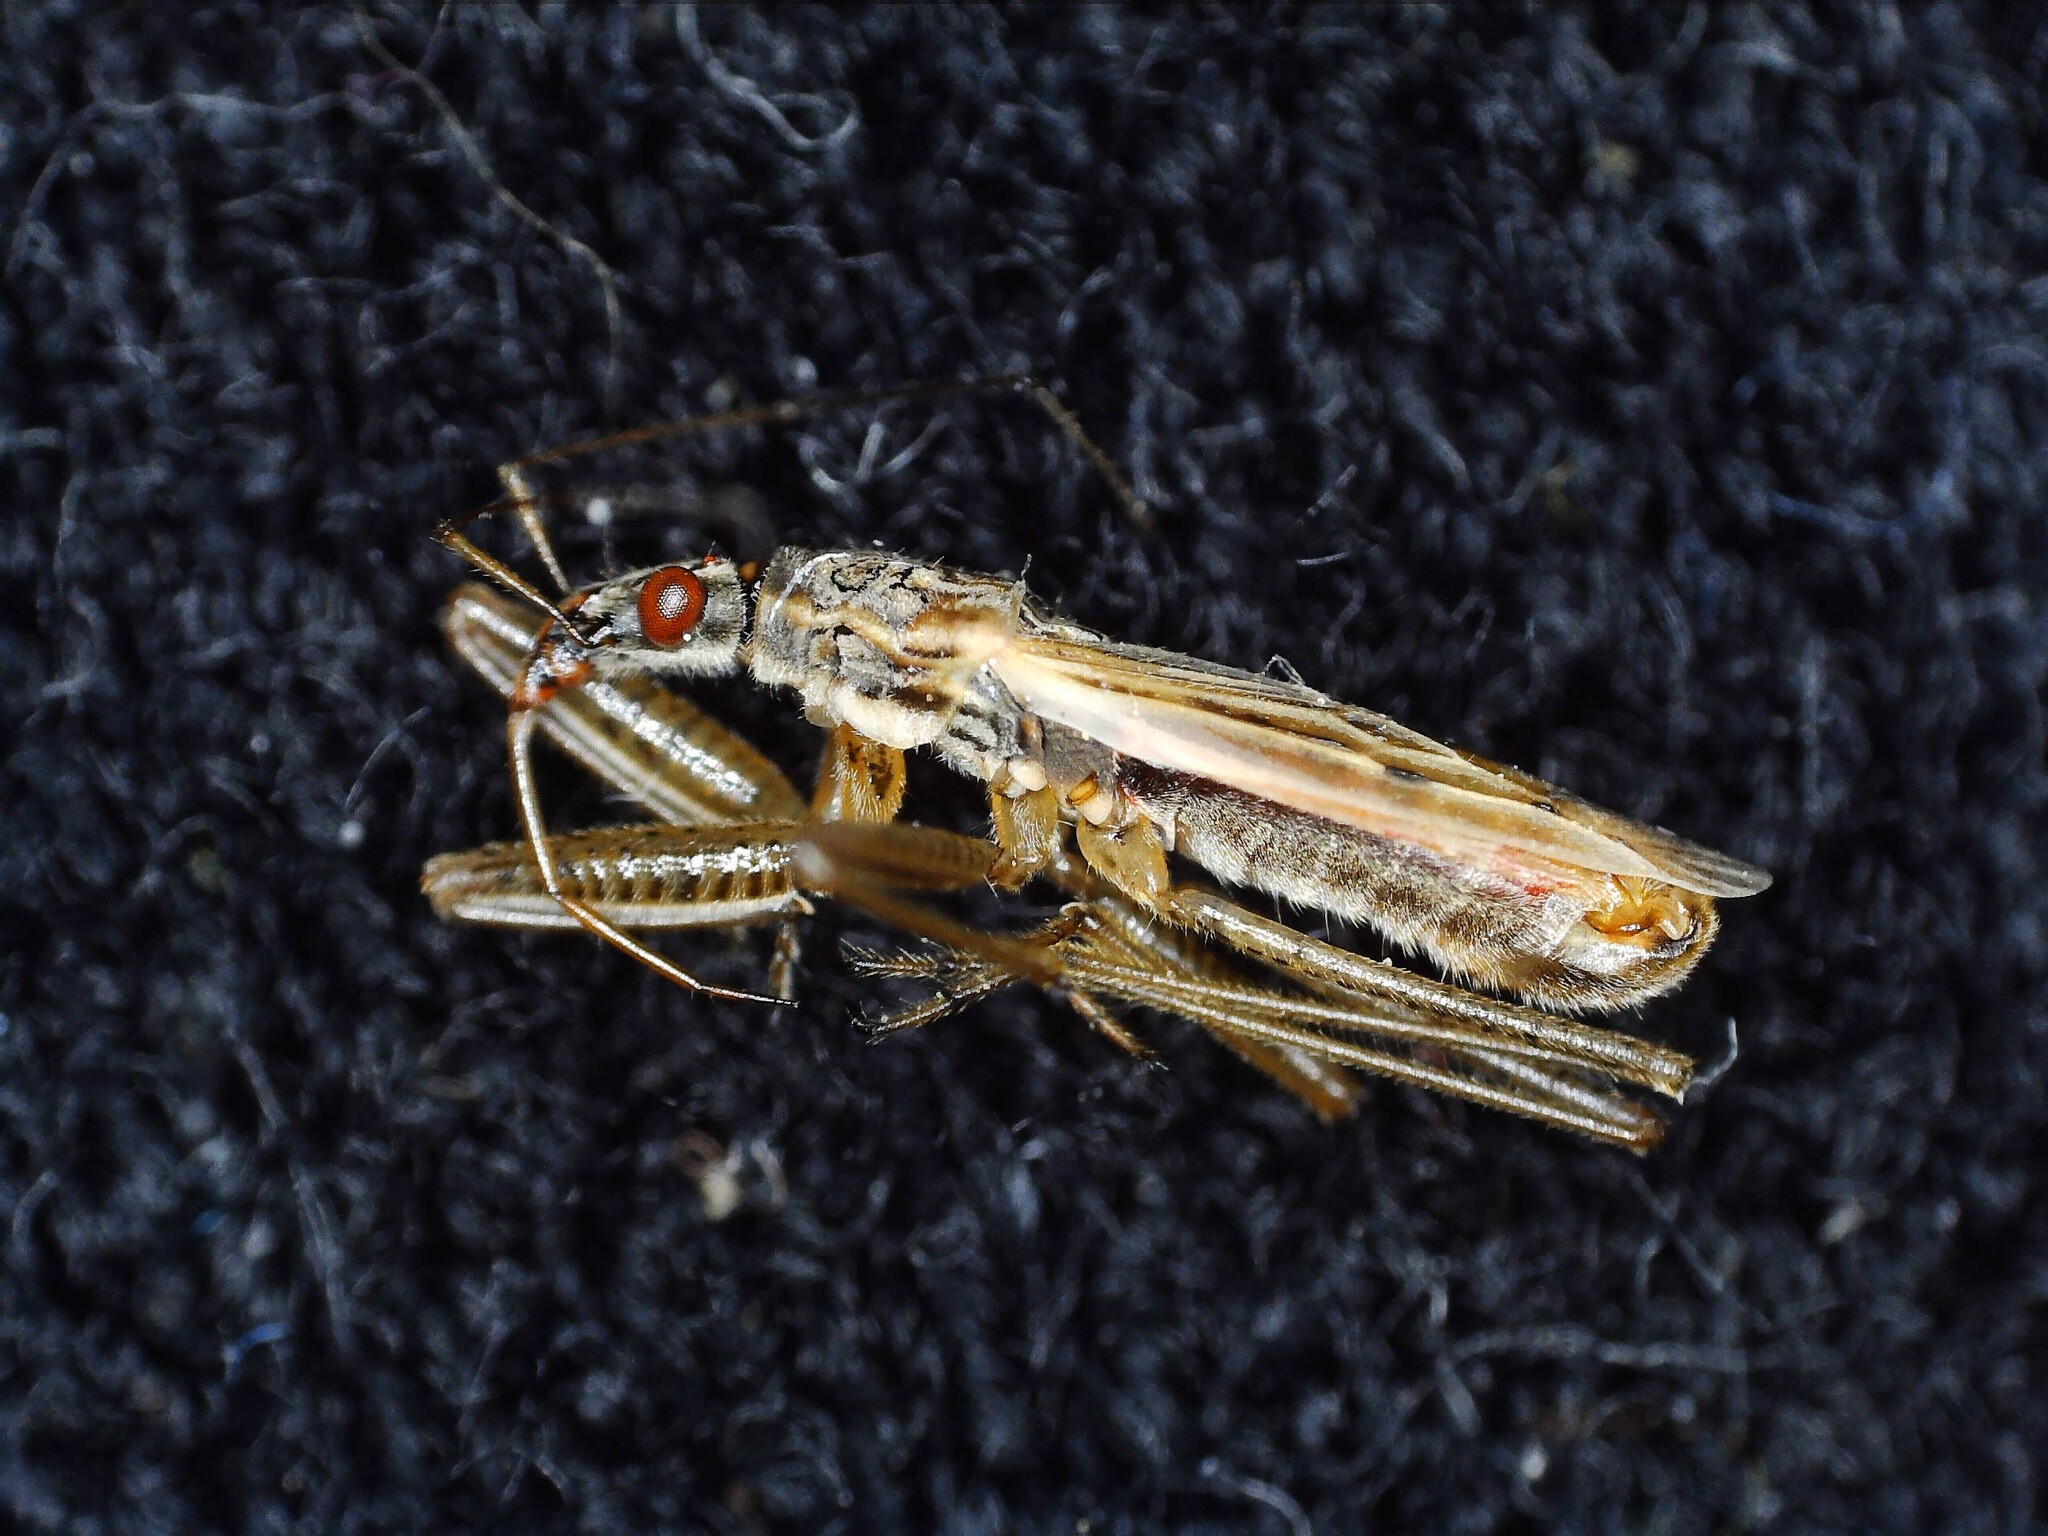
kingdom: Animalia
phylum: Arthropoda
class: Insecta
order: Hemiptera
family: Nabidae
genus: Nabis
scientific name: Nabis rugosus
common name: Common damselbug
